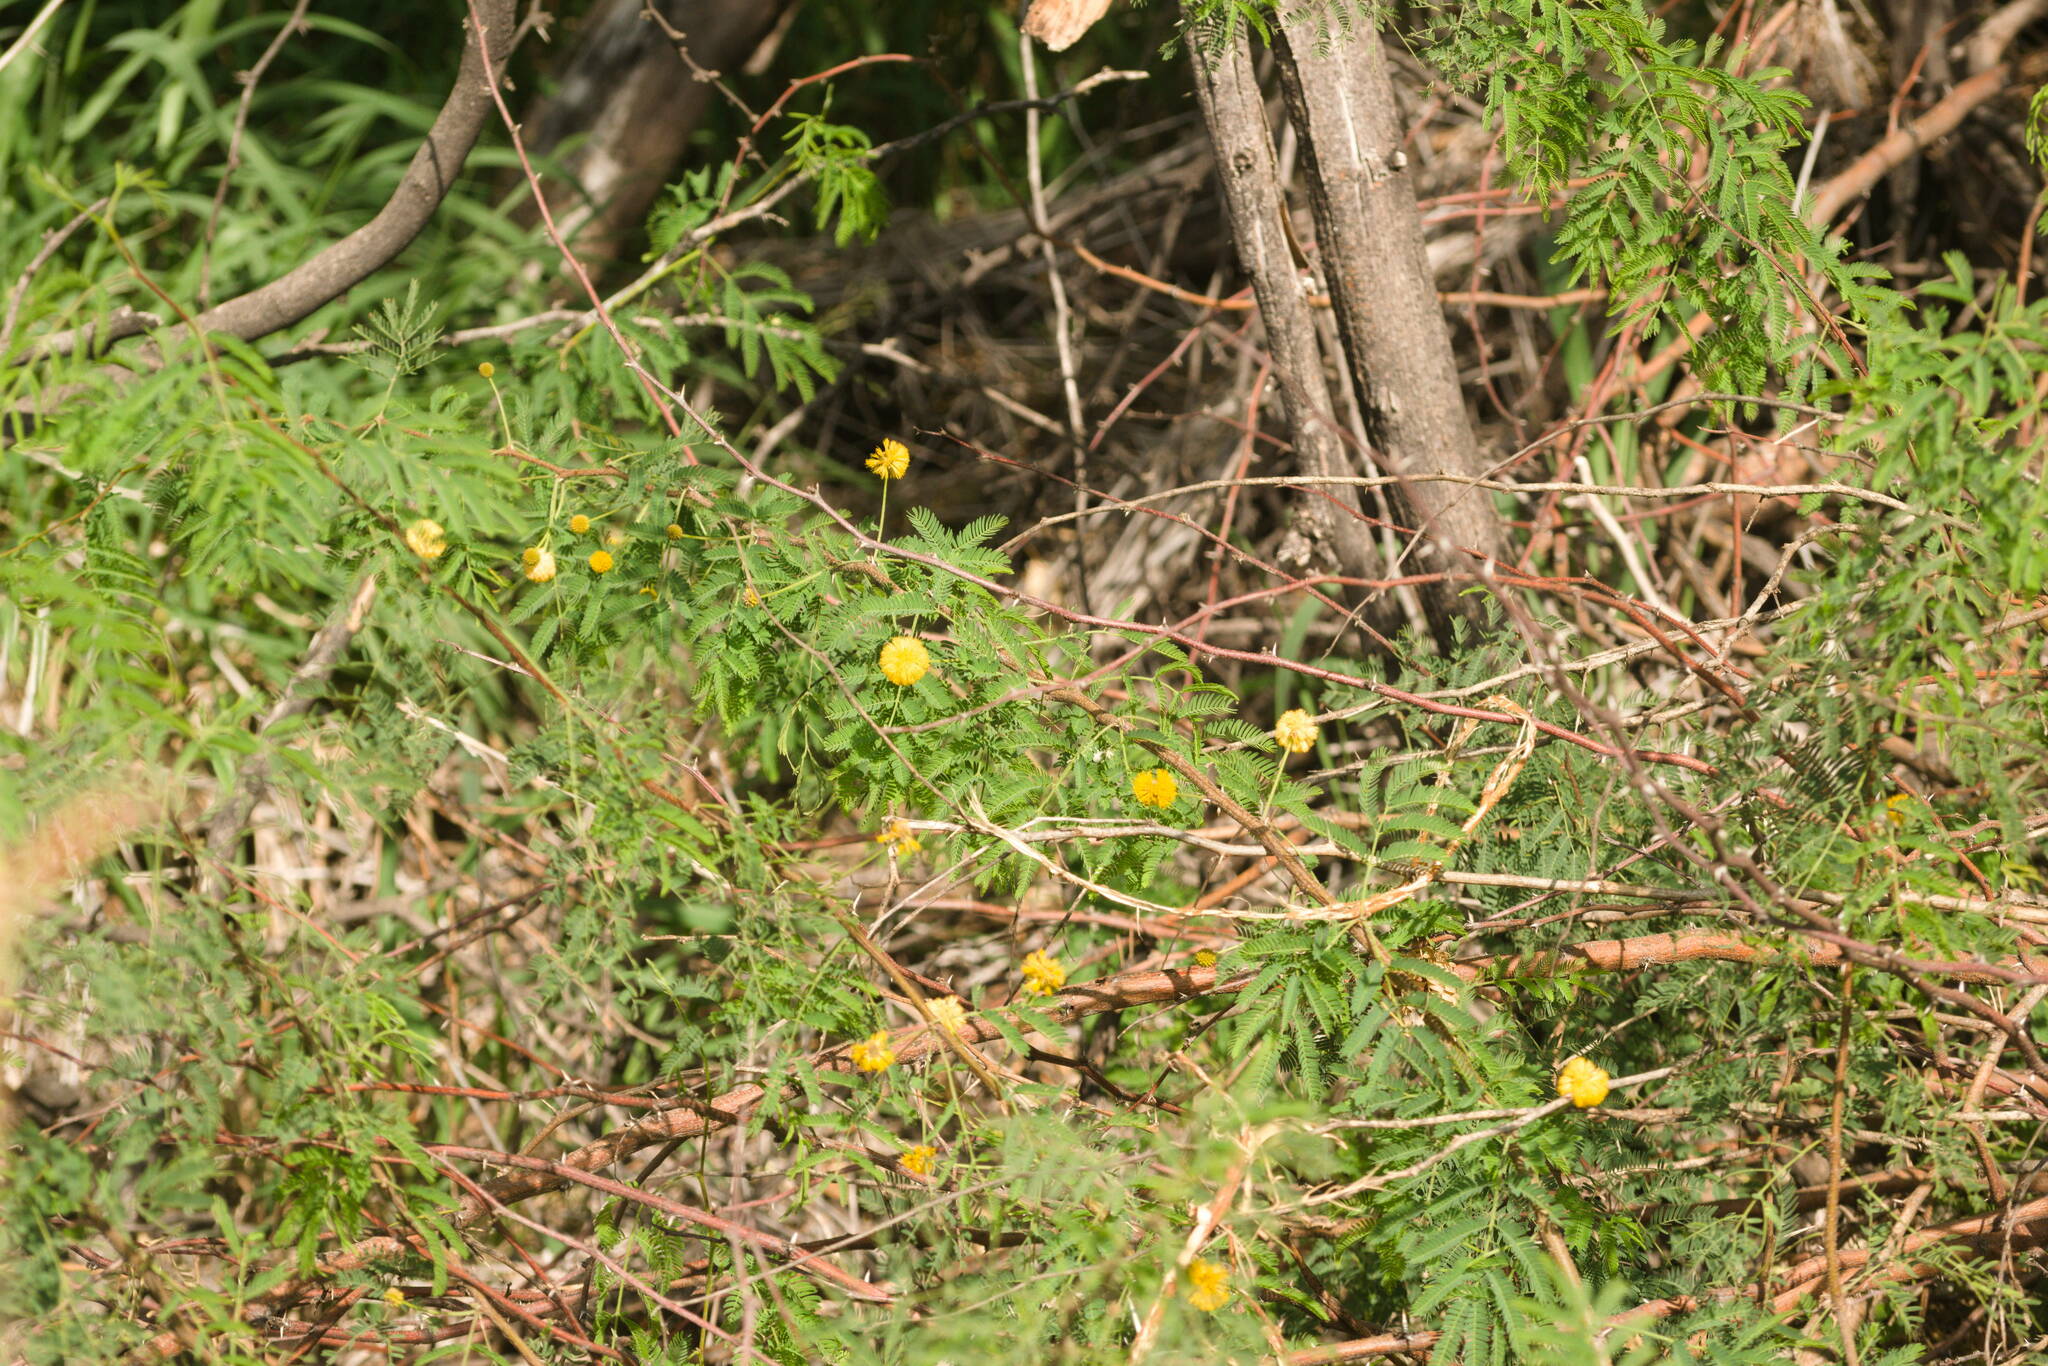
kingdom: Plantae
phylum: Tracheophyta
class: Magnoliopsida
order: Fabales
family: Fabaceae
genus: Vachellia
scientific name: Vachellia farnesiana
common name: Sweet acacia
